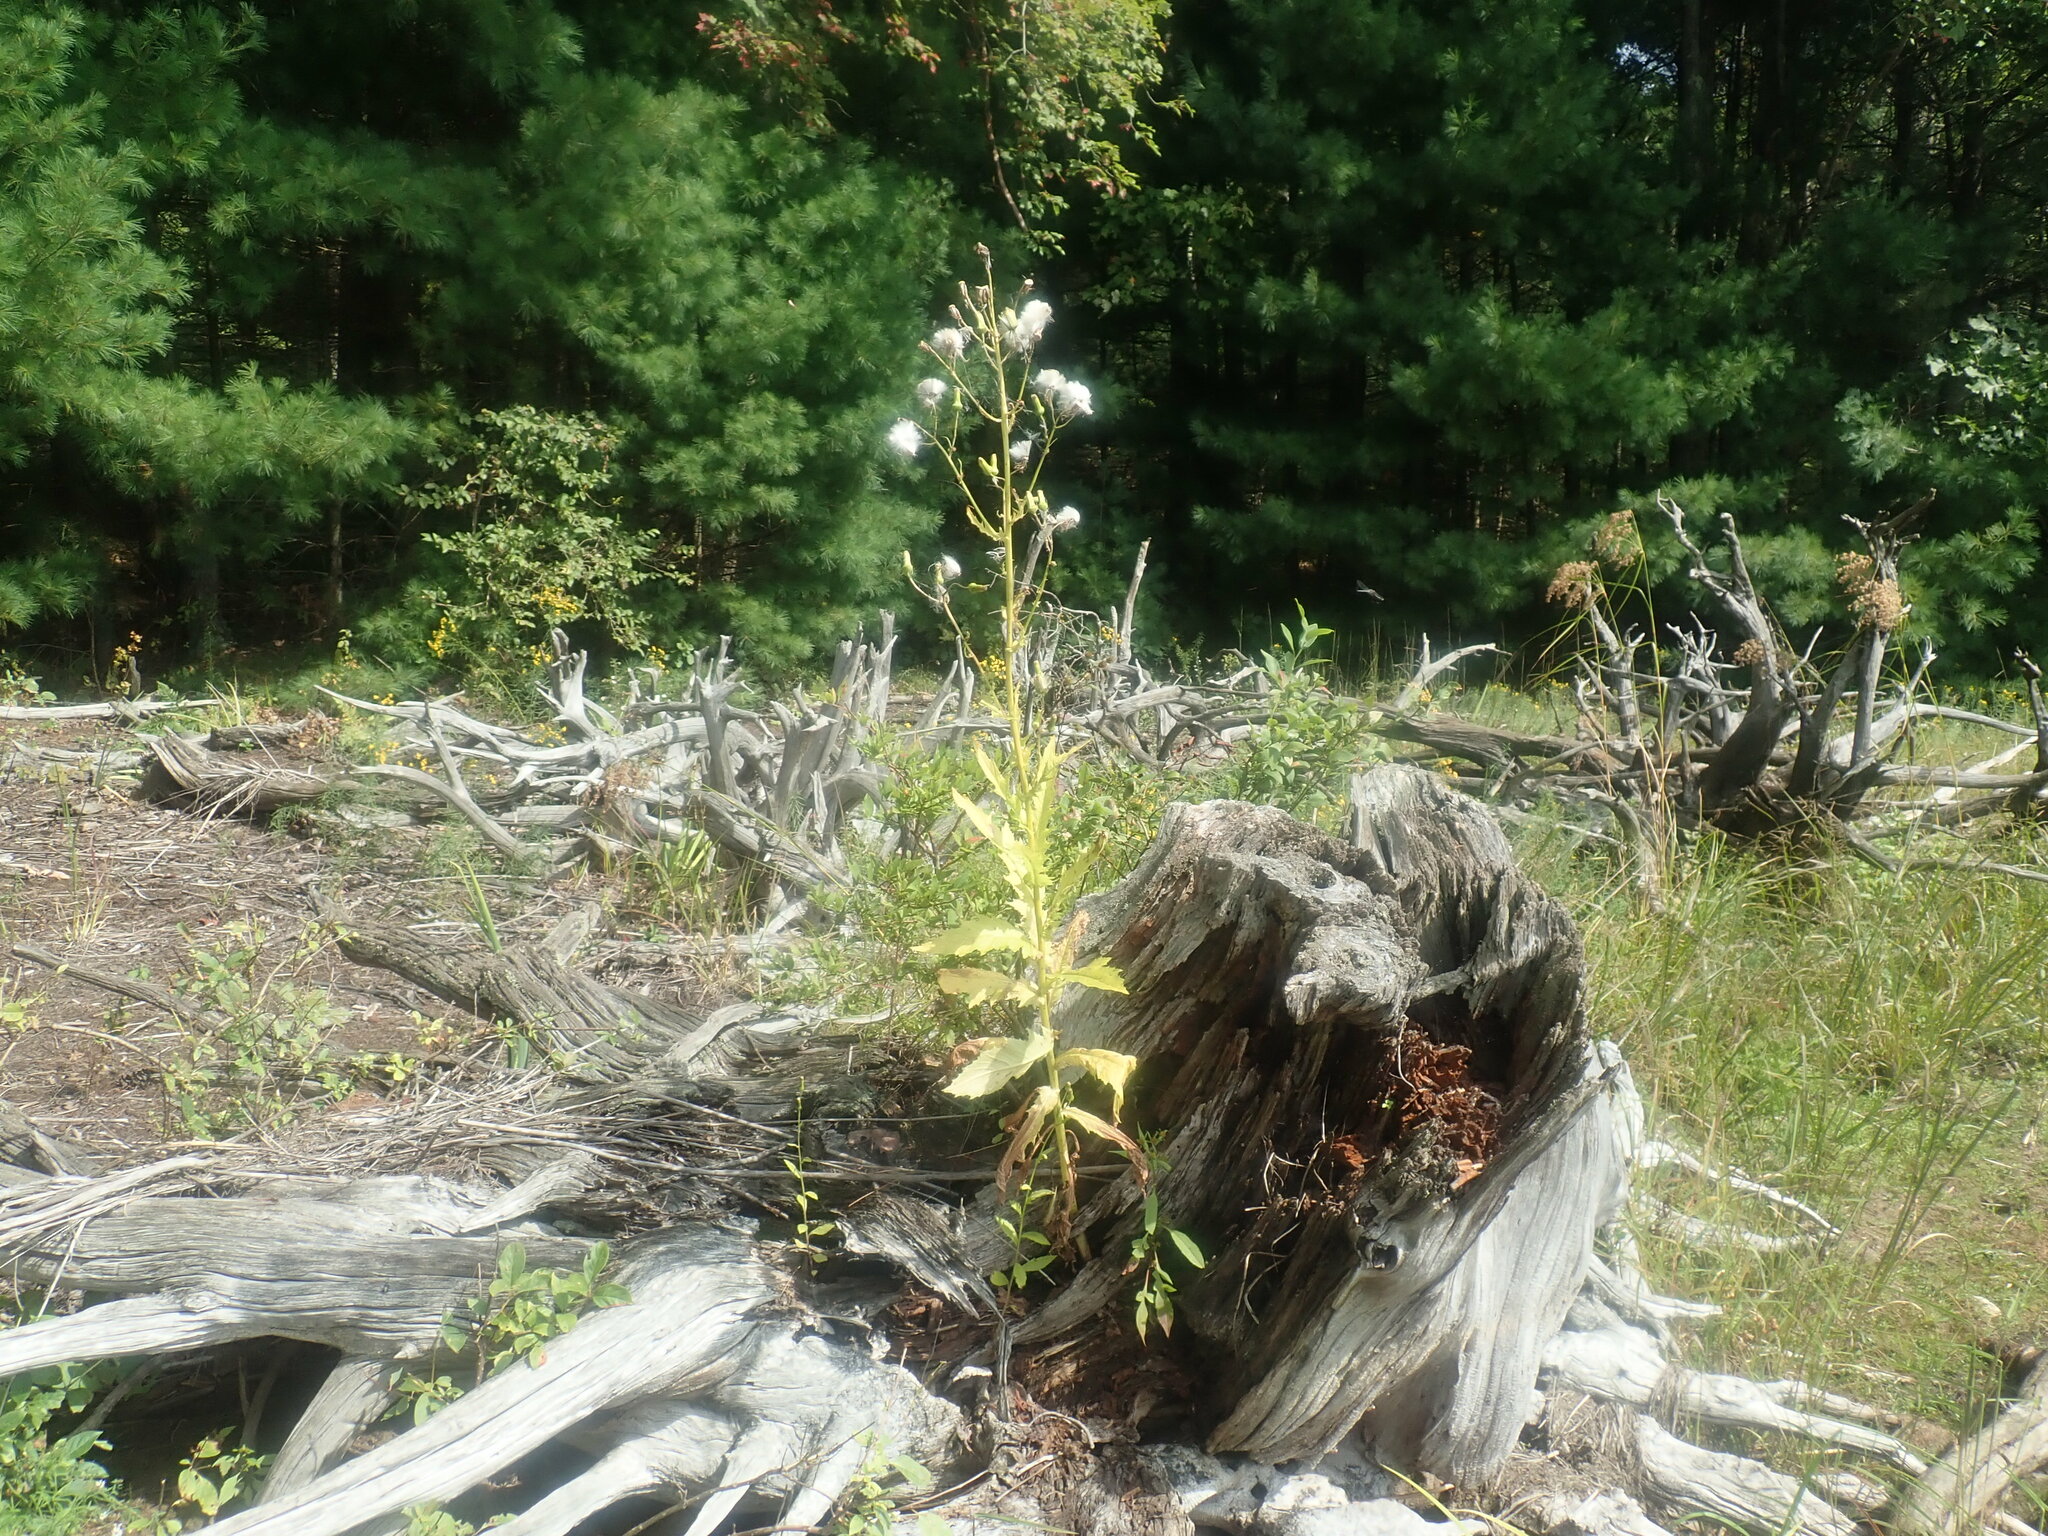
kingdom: Plantae
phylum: Tracheophyta
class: Magnoliopsida
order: Asterales
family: Asteraceae
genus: Erechtites
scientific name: Erechtites hieraciifolius
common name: American burnweed
